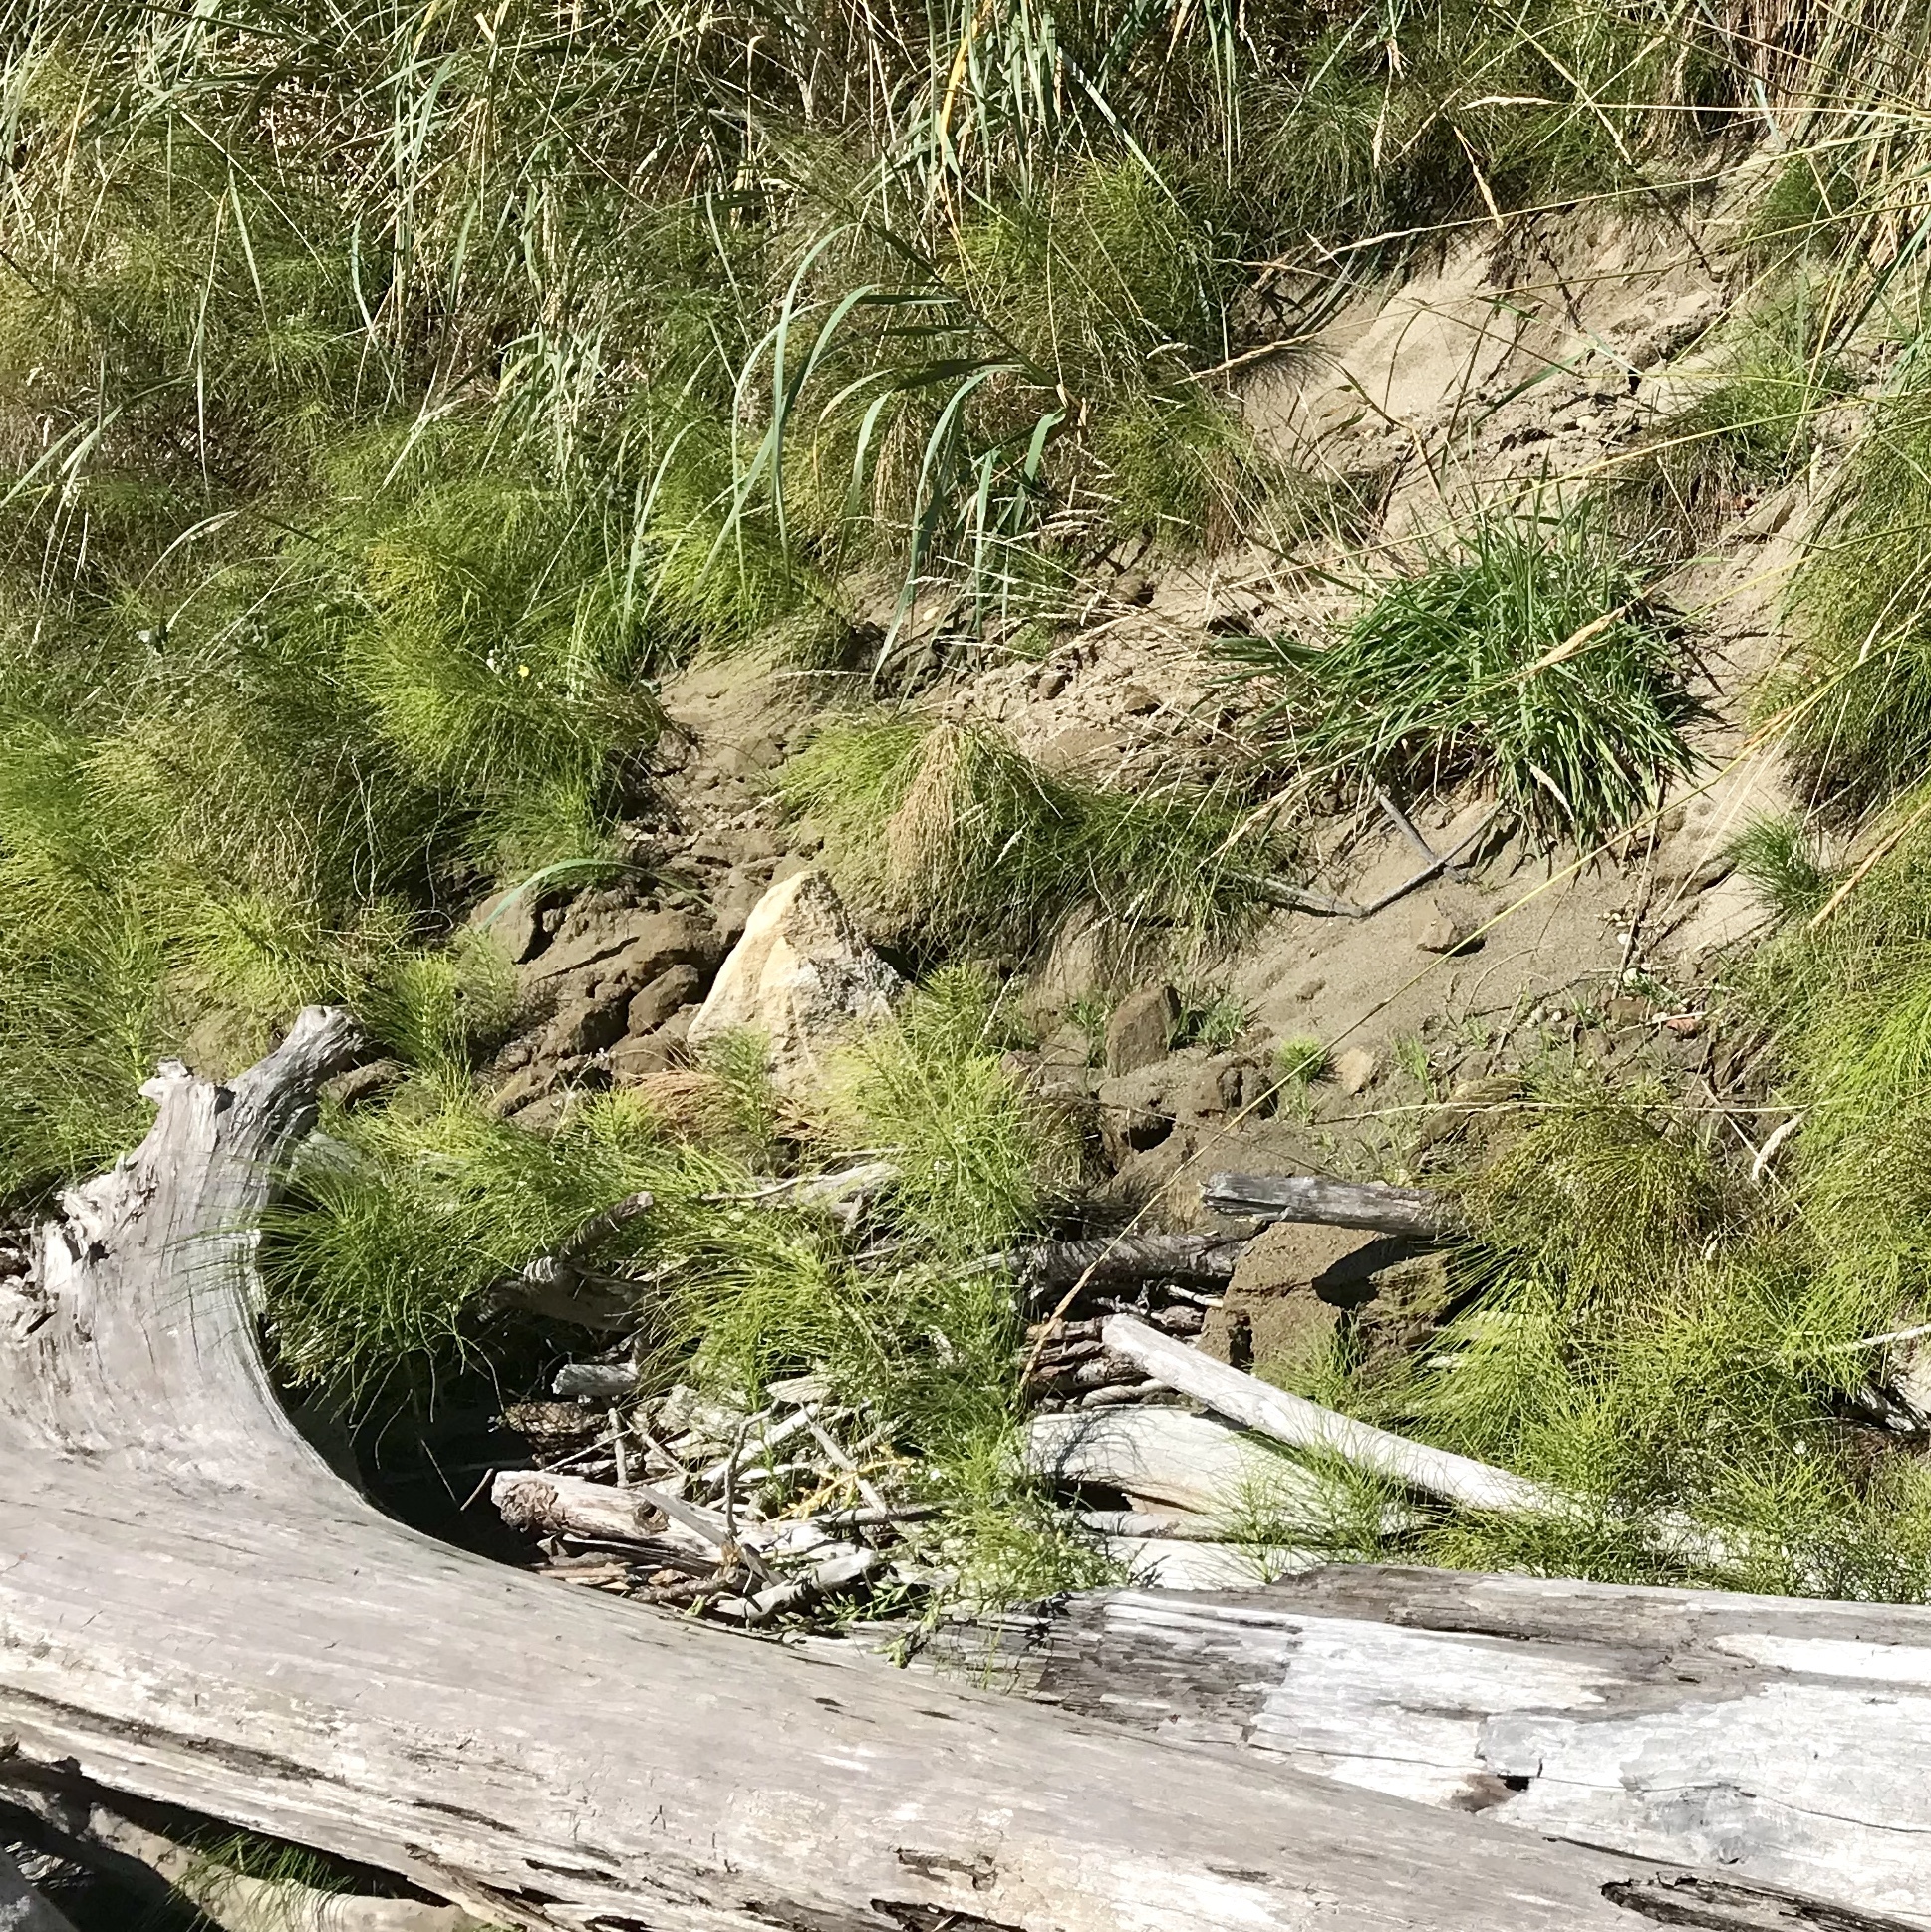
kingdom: Plantae
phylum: Tracheophyta
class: Polypodiopsida
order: Equisetales
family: Equisetaceae
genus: Equisetum
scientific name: Equisetum telmateia
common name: Great horsetail
